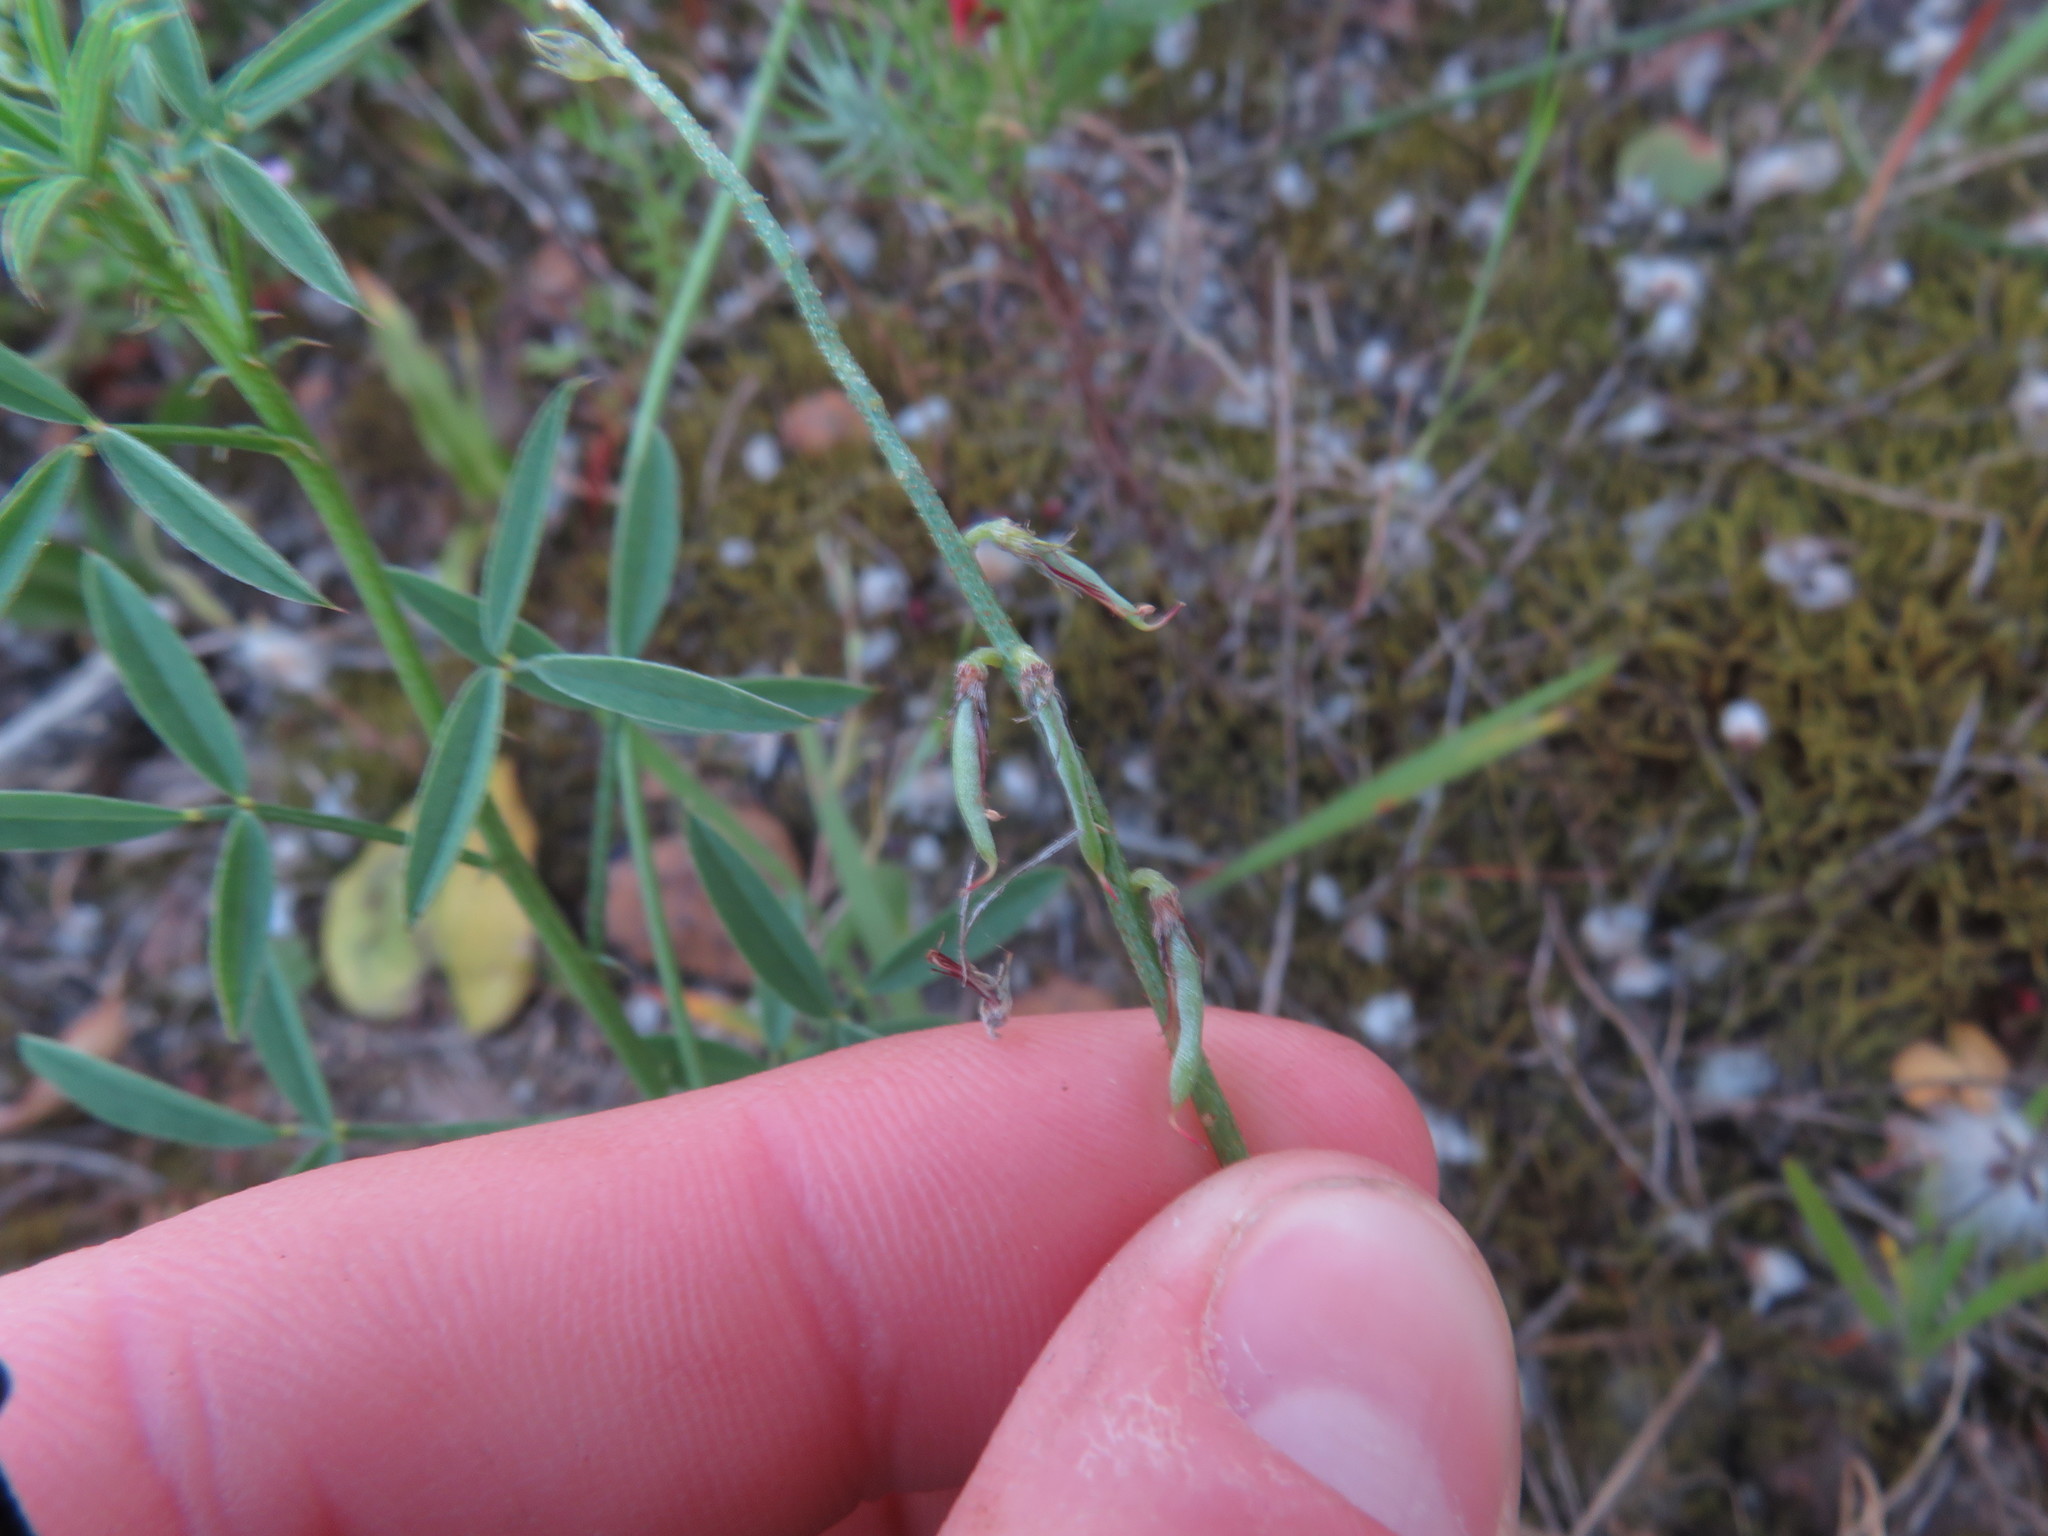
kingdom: Plantae
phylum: Tracheophyta
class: Magnoliopsida
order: Fabales
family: Fabaceae
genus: Indigofera
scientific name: Indigofera heterophylla
